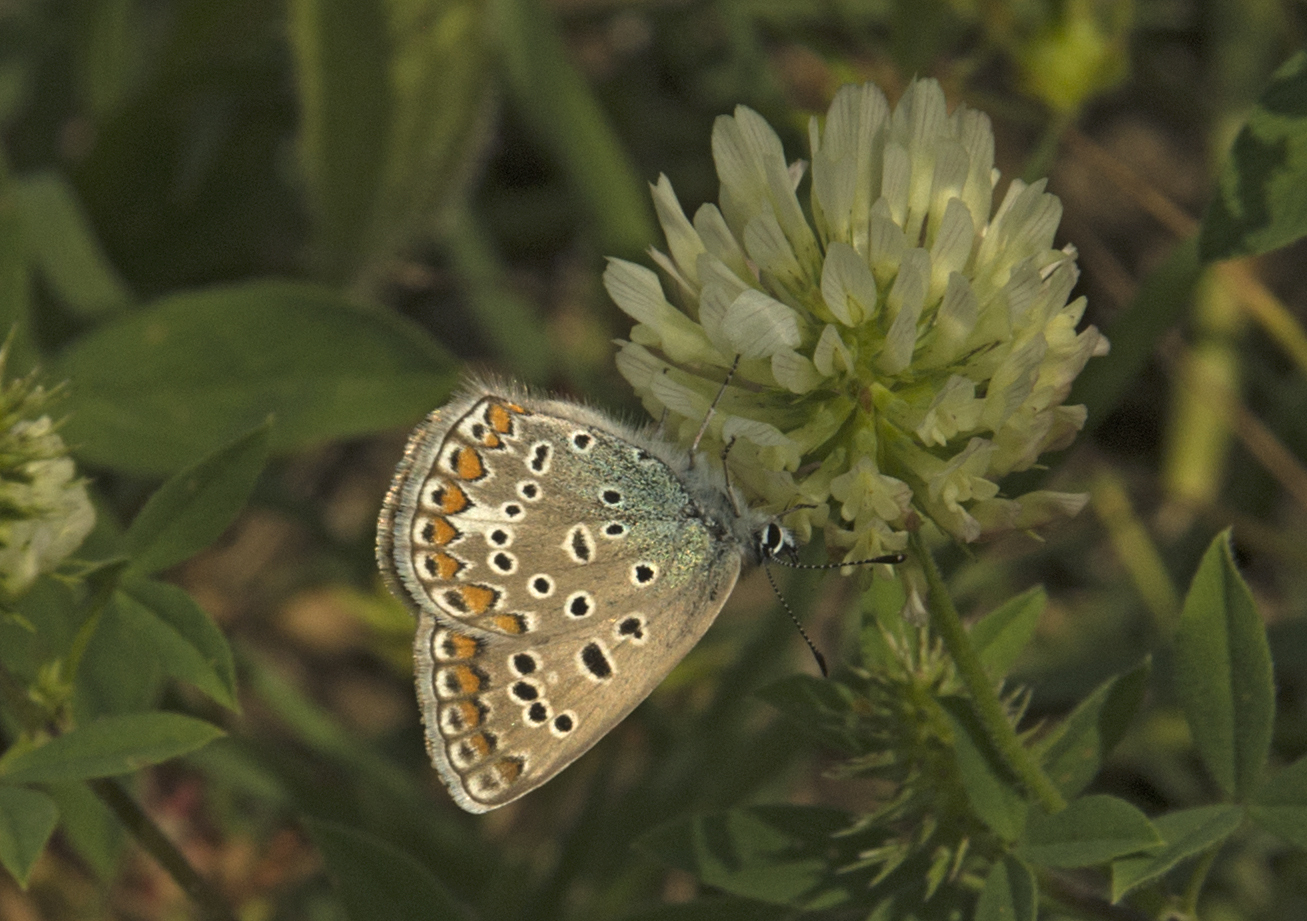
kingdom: Animalia
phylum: Arthropoda
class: Insecta
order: Lepidoptera
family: Lycaenidae
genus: Polyommatus
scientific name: Polyommatus icarus
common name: Common blue
